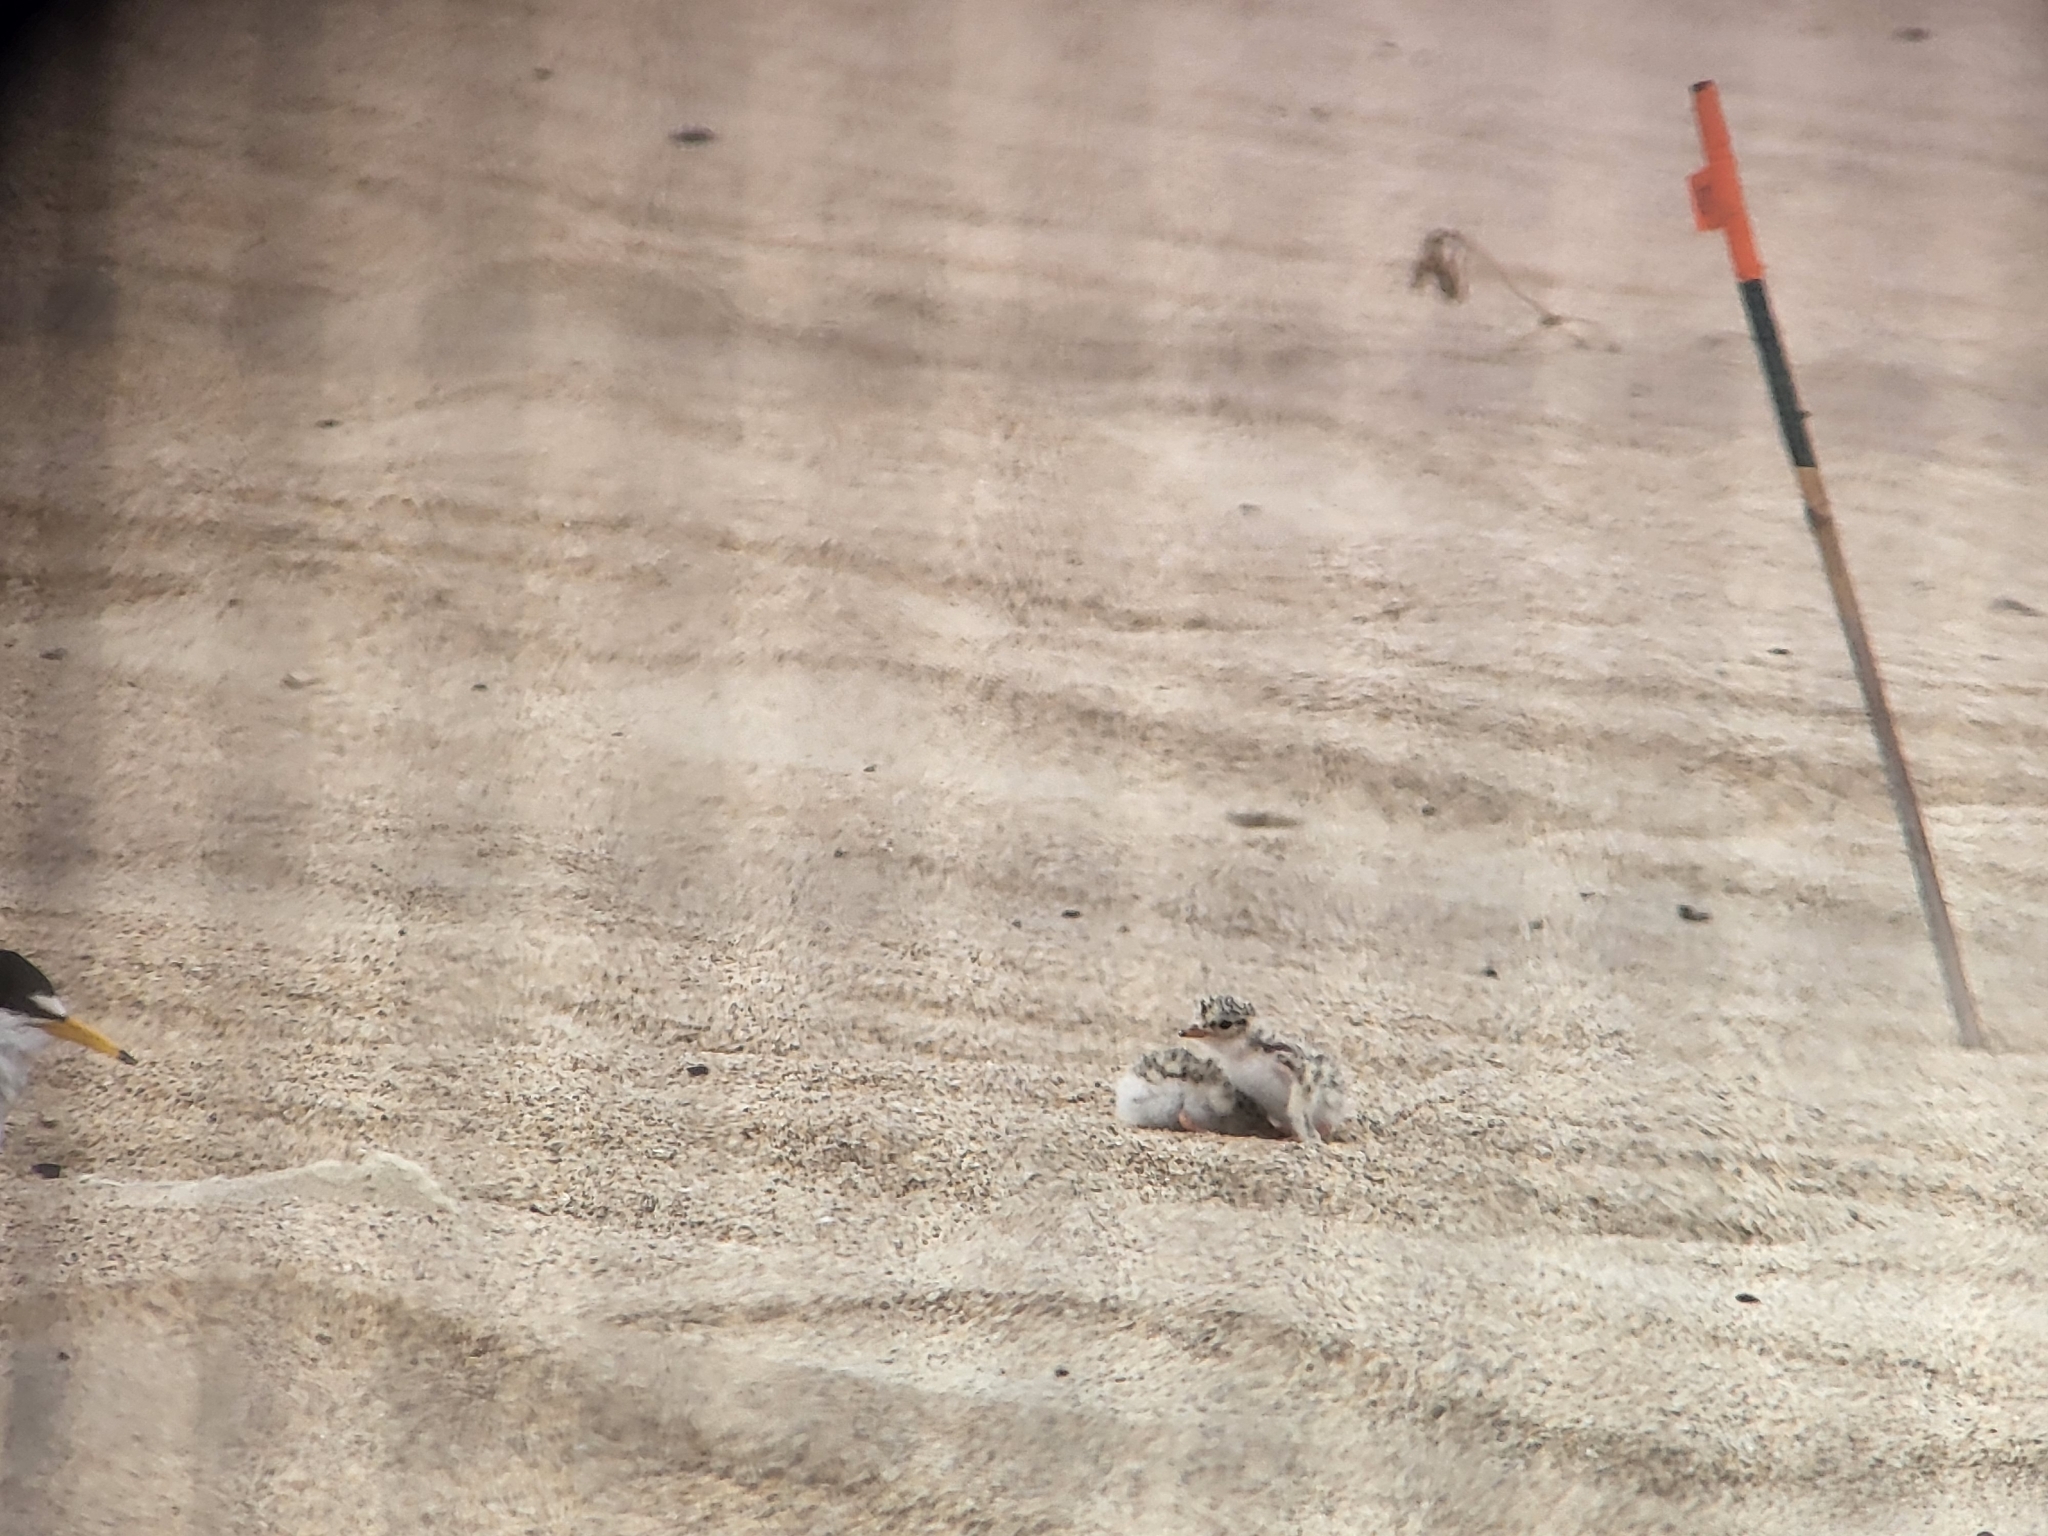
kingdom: Animalia
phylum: Chordata
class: Aves
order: Charadriiformes
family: Laridae
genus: Sternula
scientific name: Sternula antillarum
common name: Least tern
